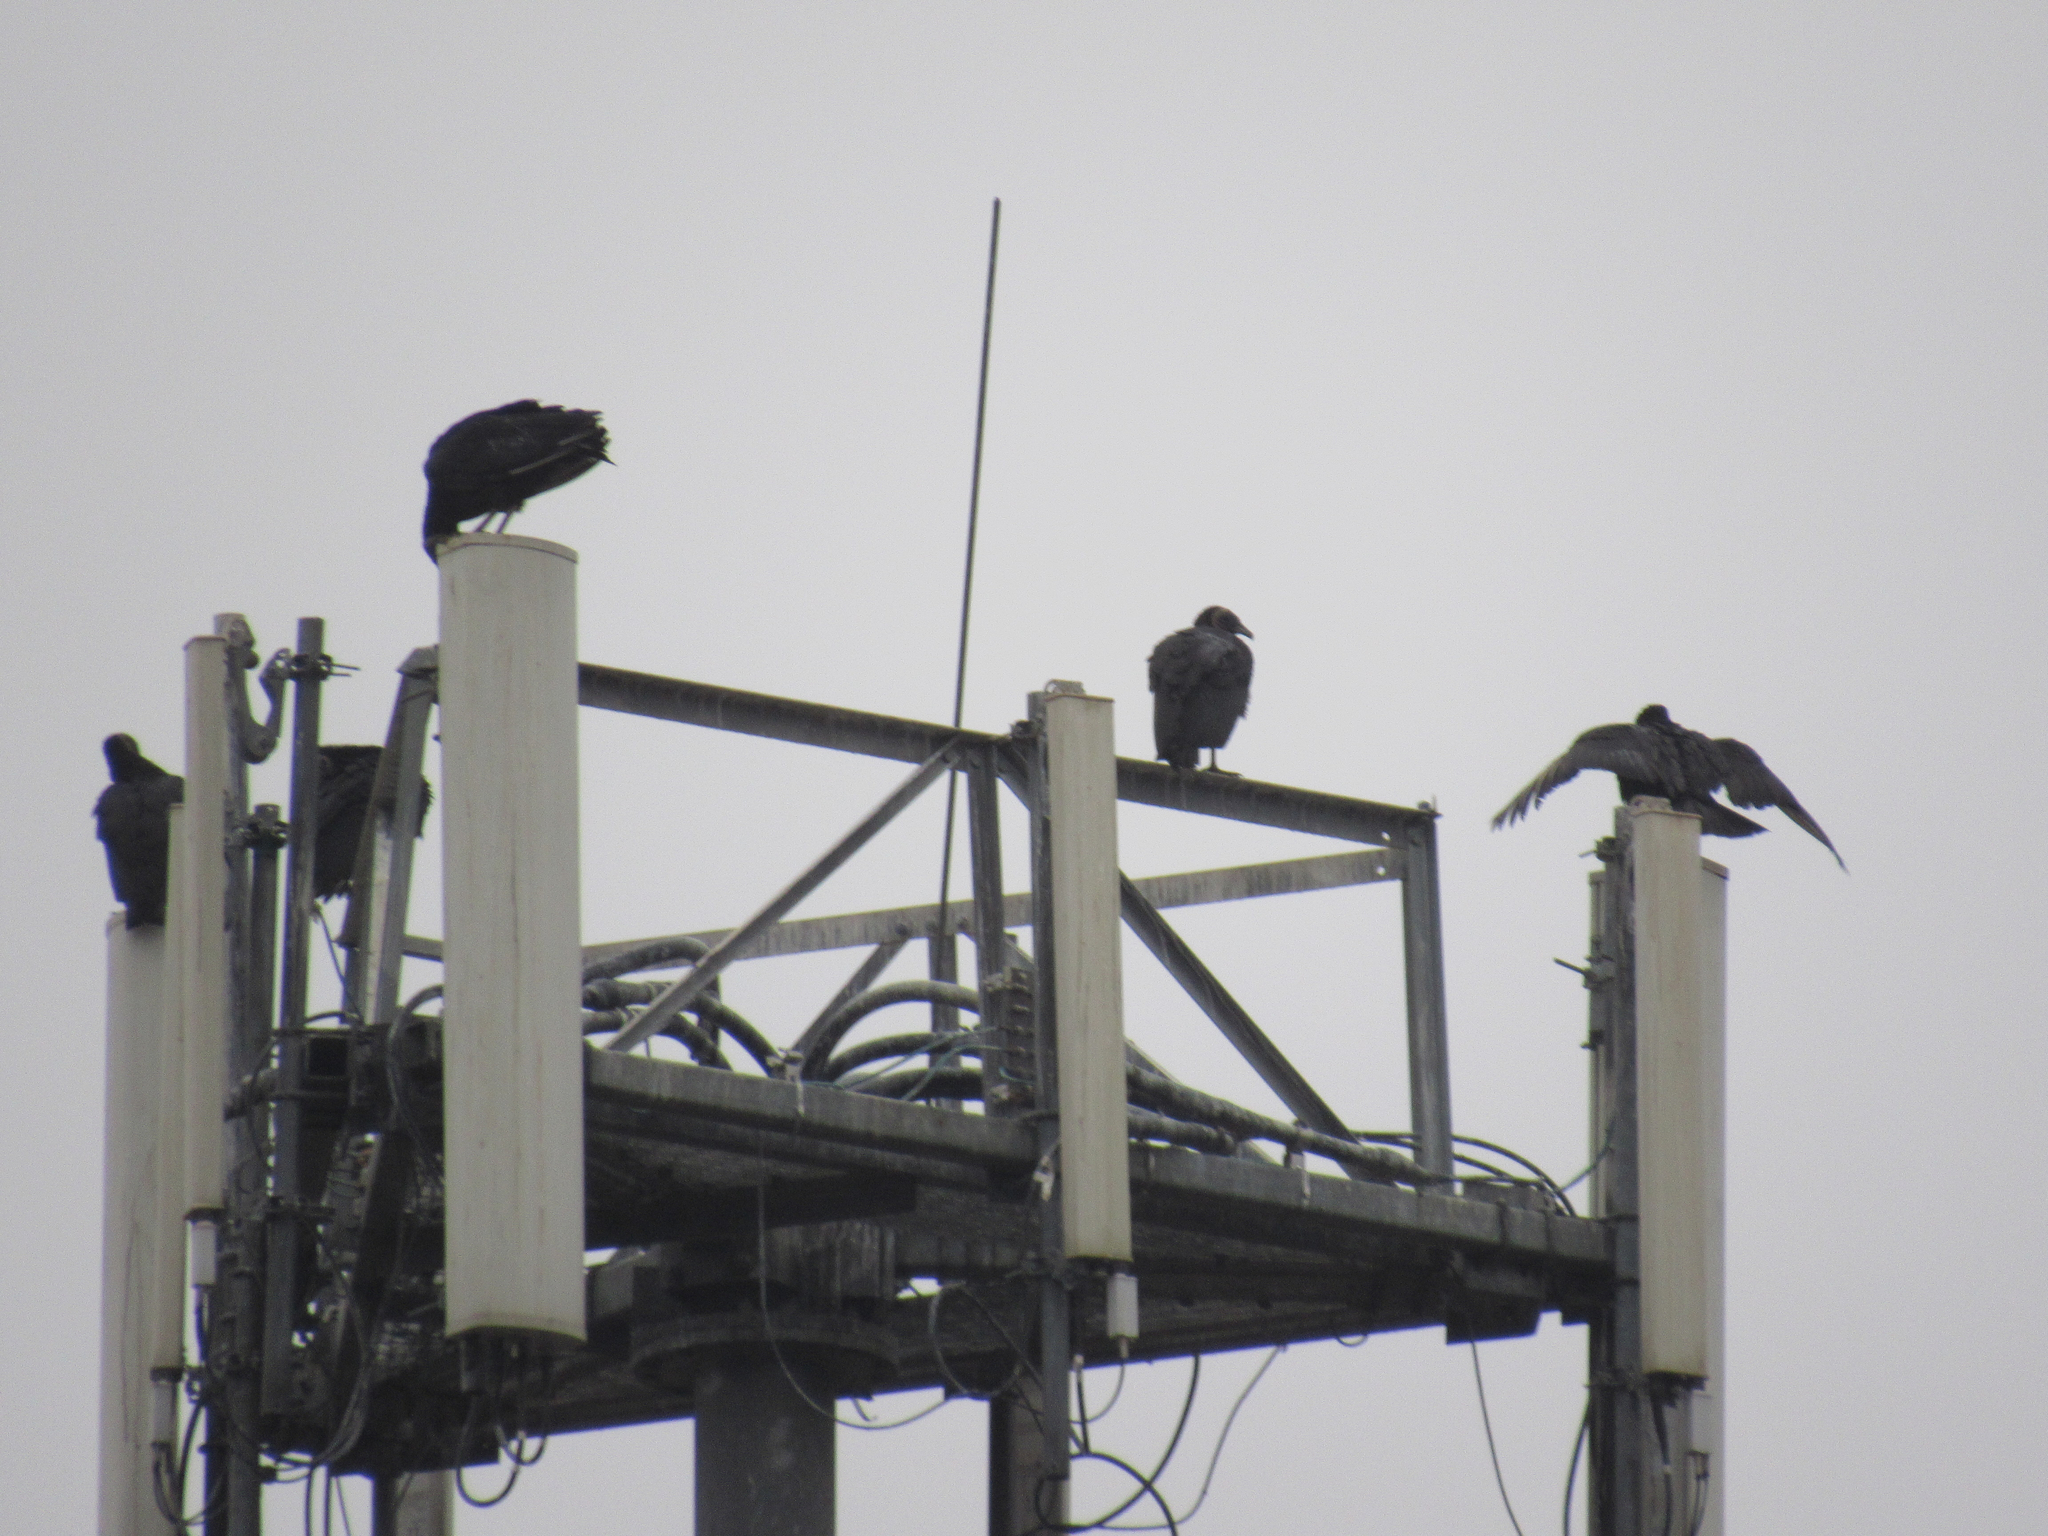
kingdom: Animalia
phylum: Chordata
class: Aves
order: Accipitriformes
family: Cathartidae
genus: Coragyps
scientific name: Coragyps atratus
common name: Black vulture
